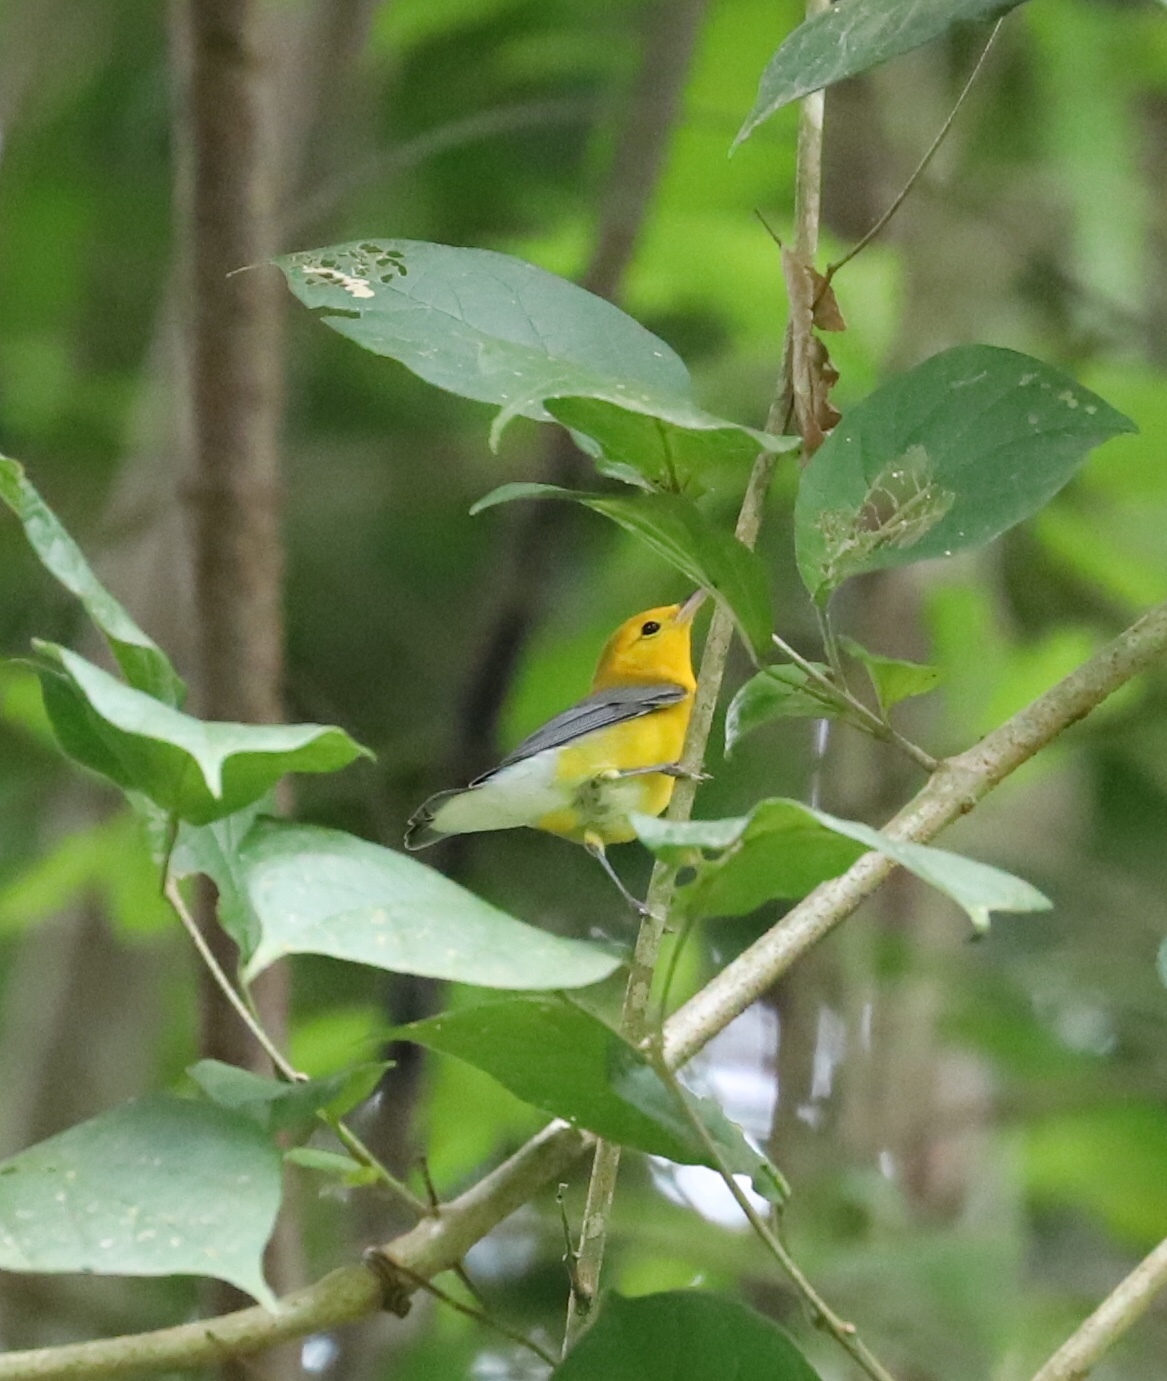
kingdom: Animalia
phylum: Chordata
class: Aves
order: Passeriformes
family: Parulidae
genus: Protonotaria
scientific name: Protonotaria citrea
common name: Prothonotary warbler
